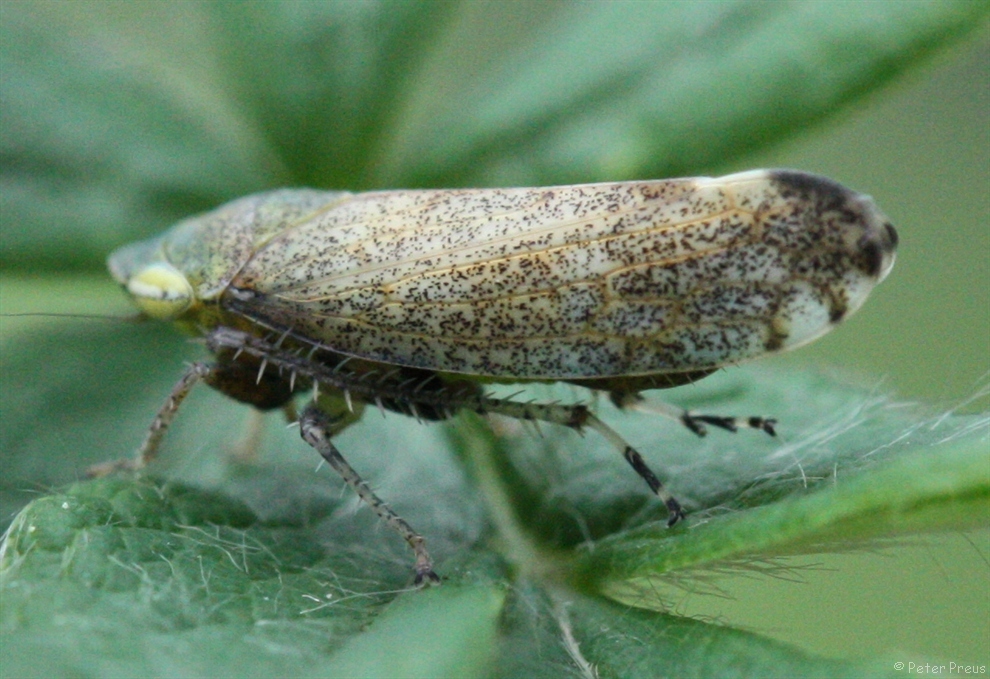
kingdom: Animalia
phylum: Arthropoda
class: Insecta
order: Hemiptera
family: Cicadellidae
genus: Fieberiella
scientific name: Fieberiella
